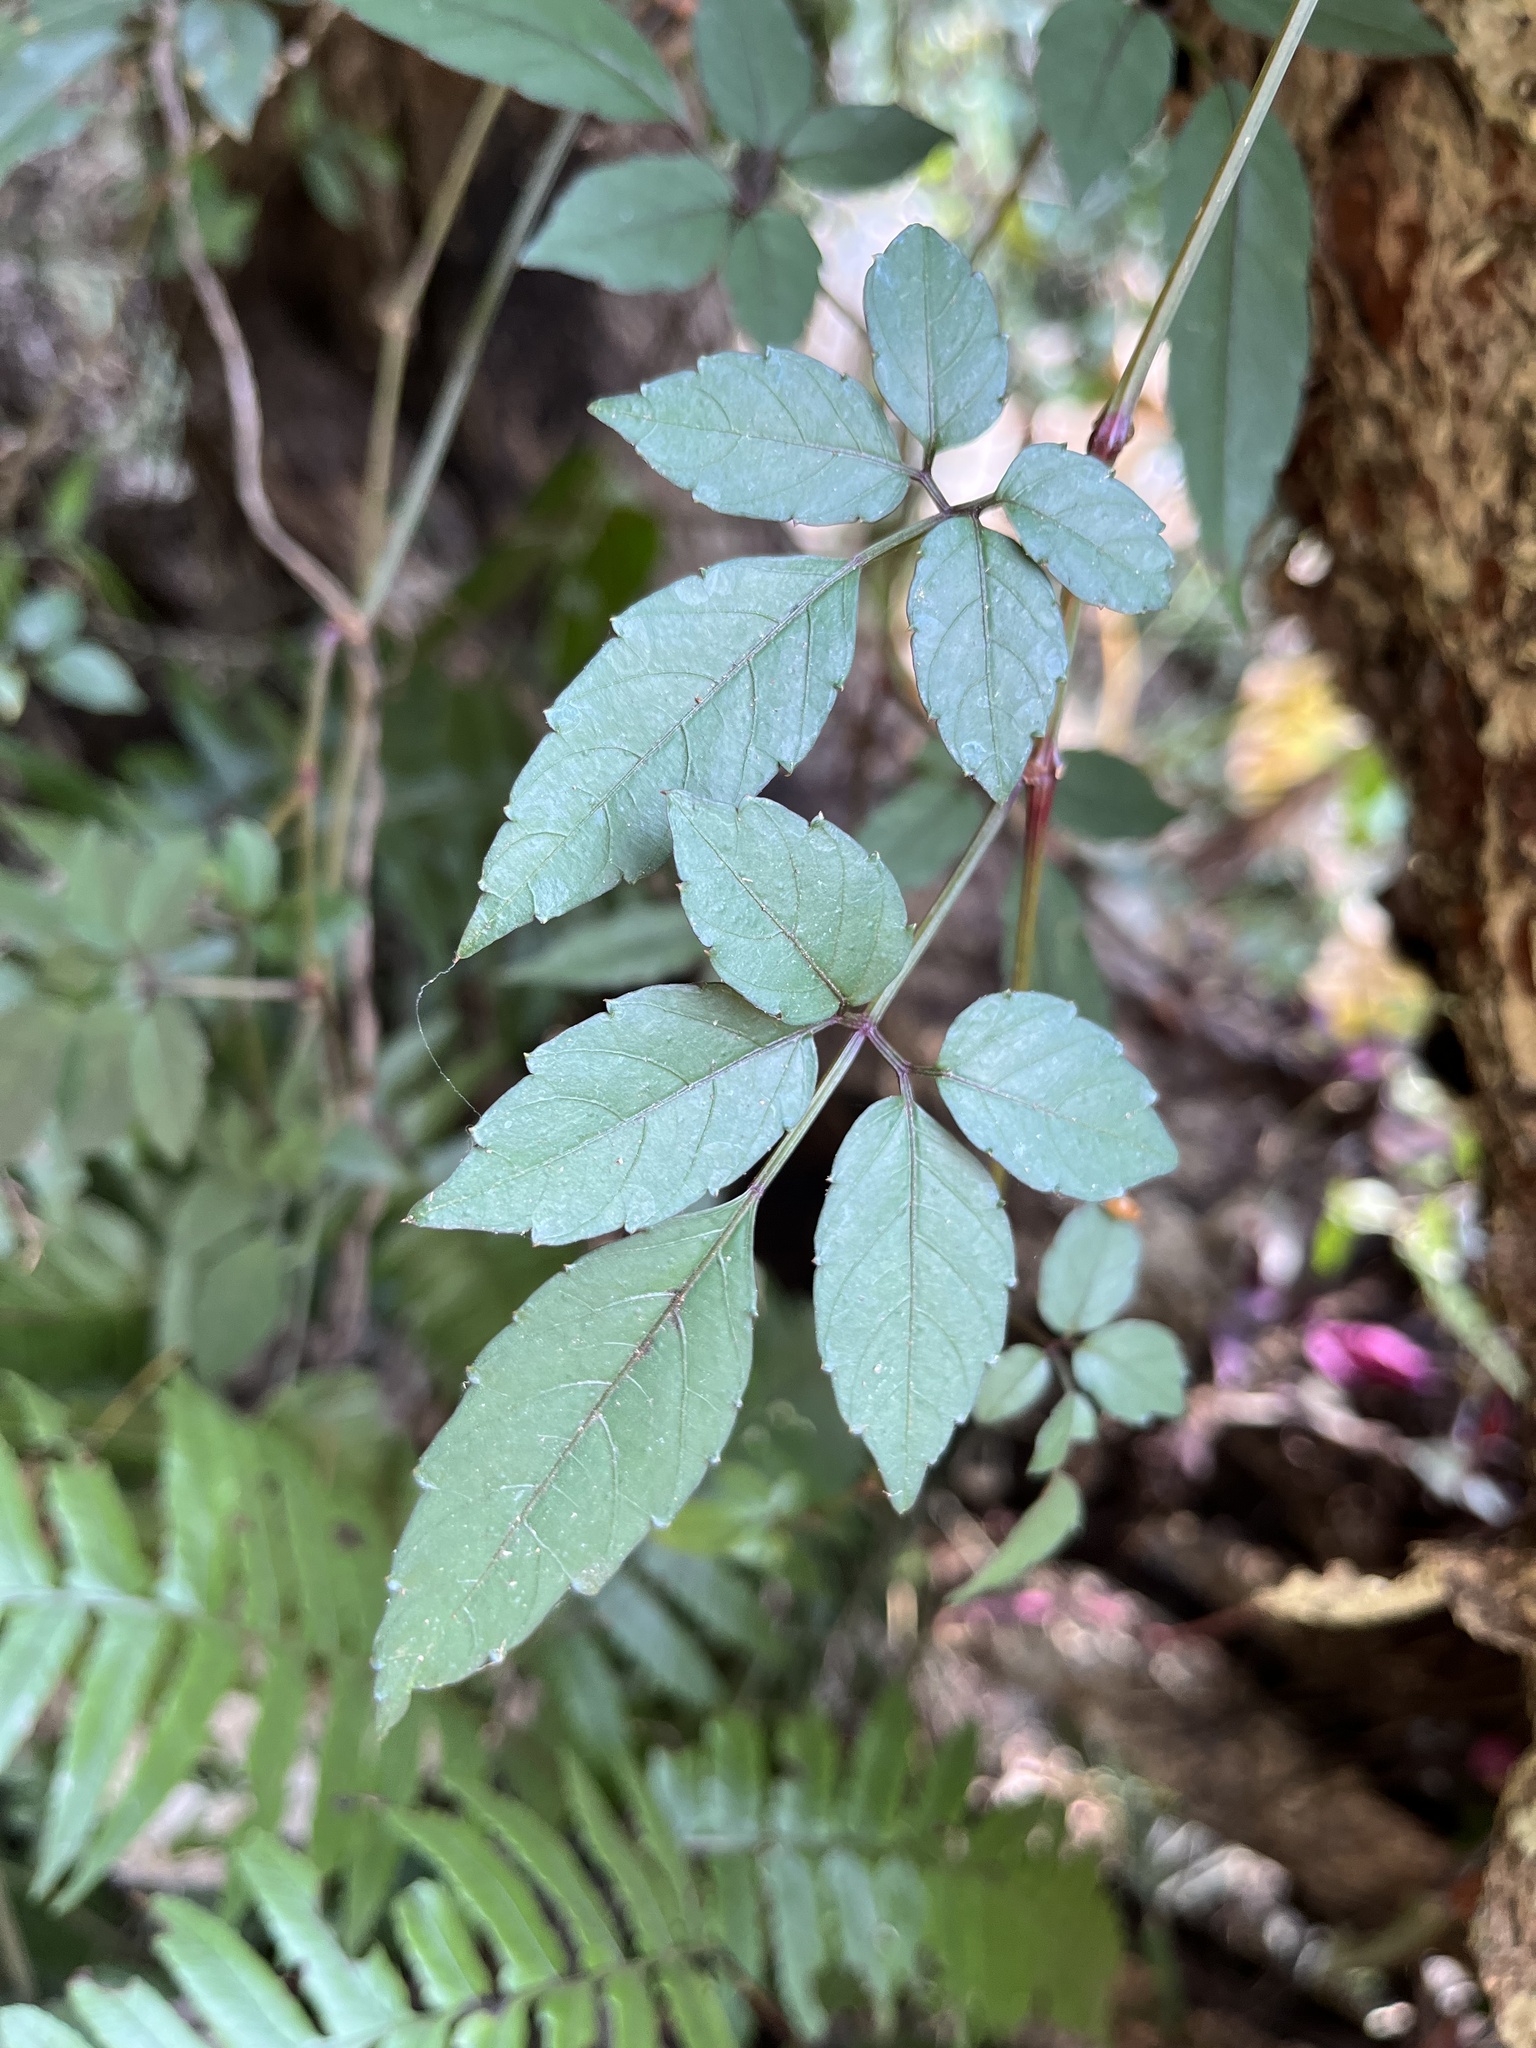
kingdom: Plantae
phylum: Tracheophyta
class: Magnoliopsida
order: Vitales
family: Vitaceae
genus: Causonis
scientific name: Causonis corniculata
